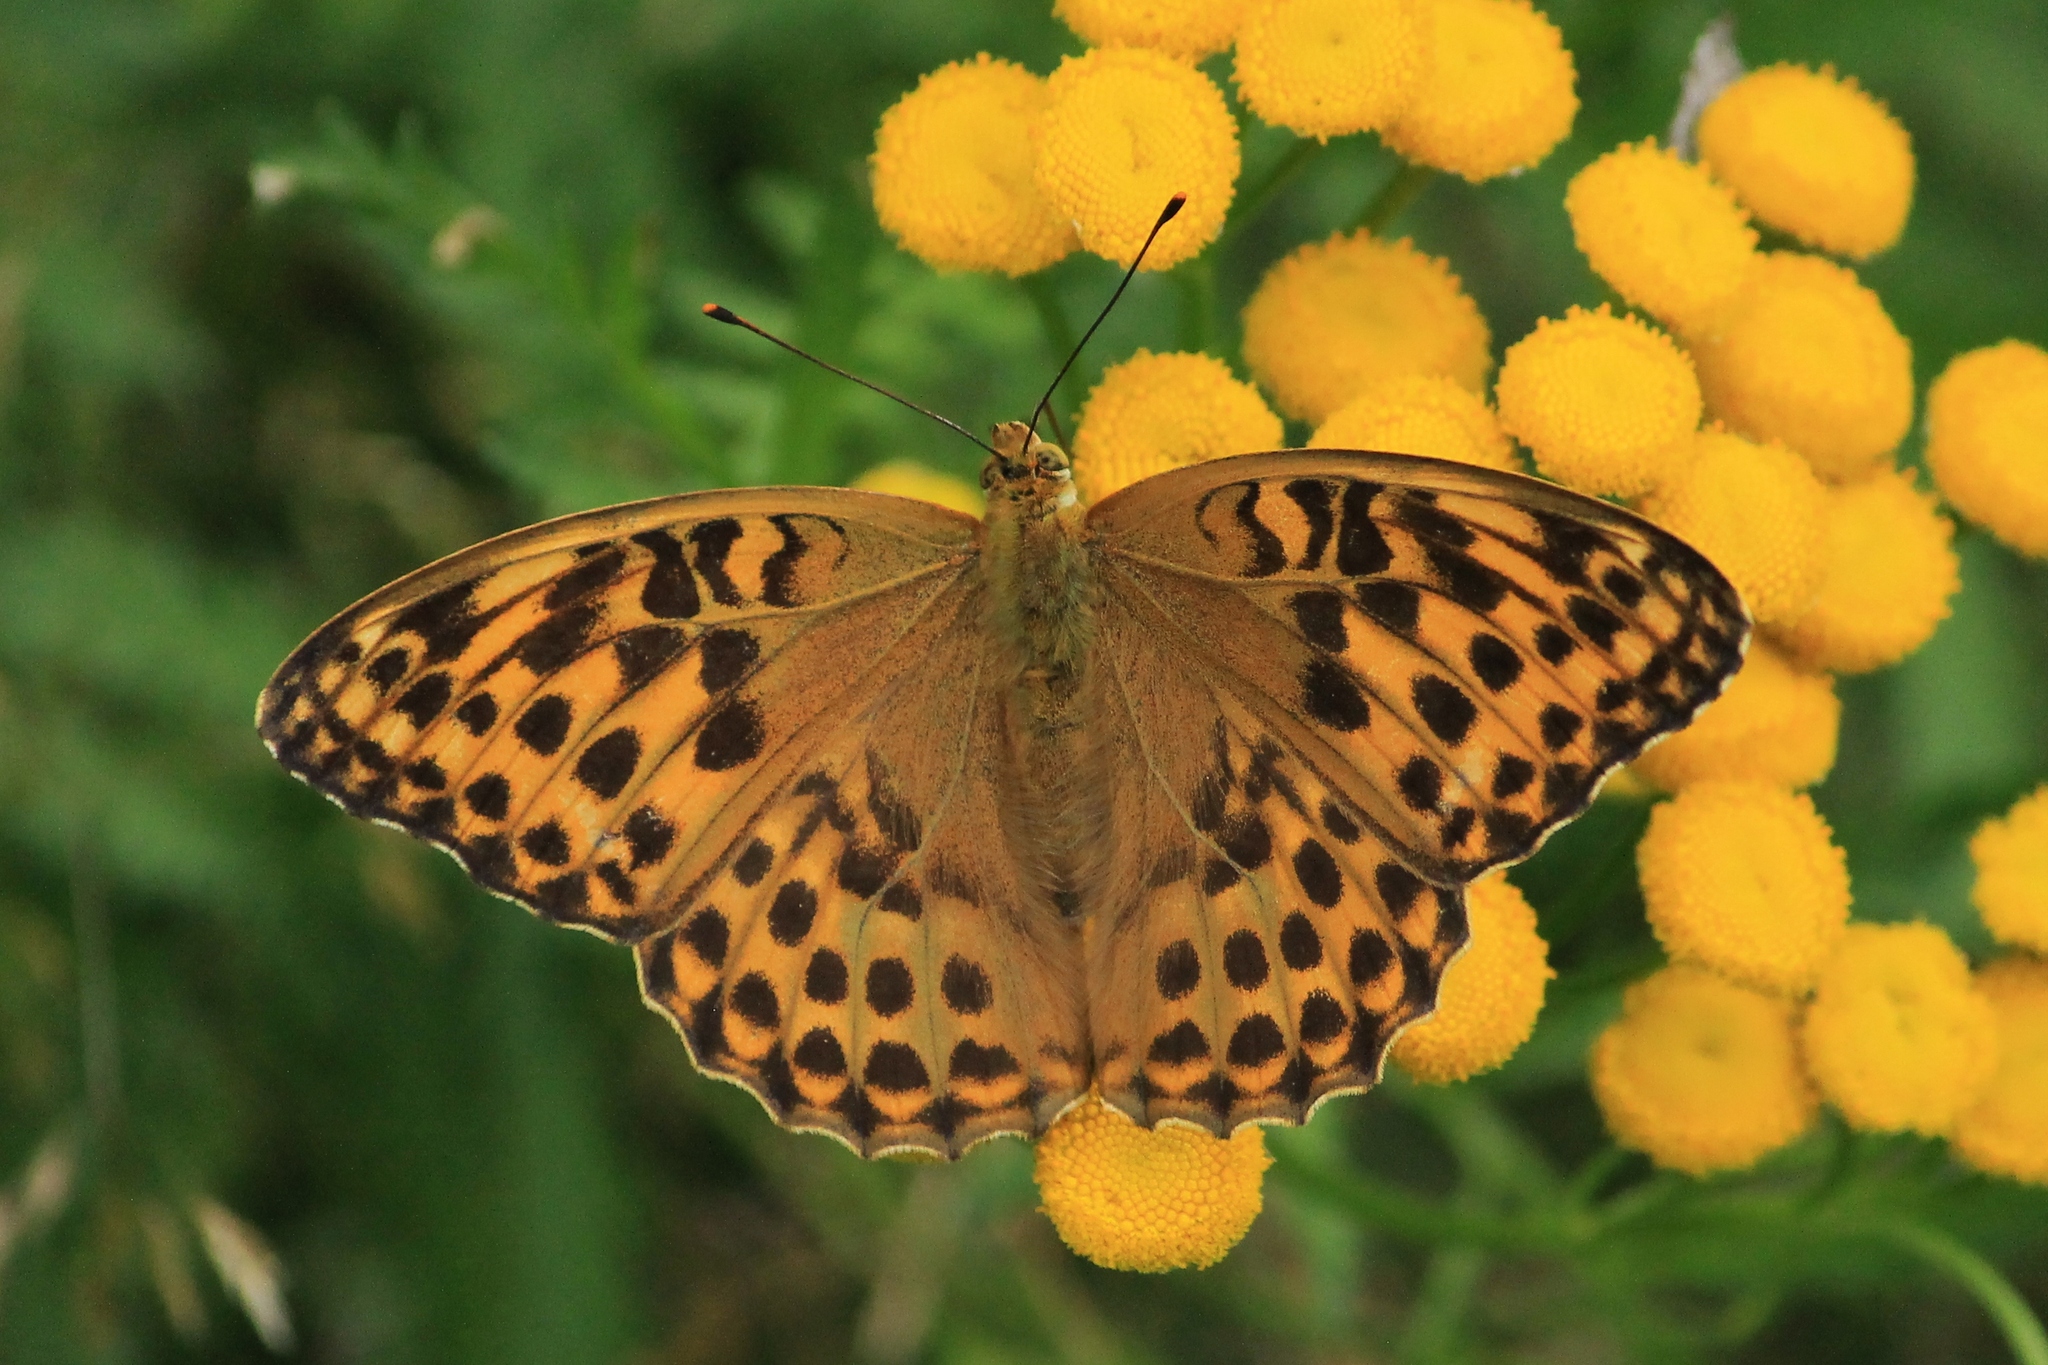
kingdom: Animalia
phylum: Arthropoda
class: Insecta
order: Lepidoptera
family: Nymphalidae
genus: Argynnis
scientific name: Argynnis paphia
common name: Silver-washed fritillary
